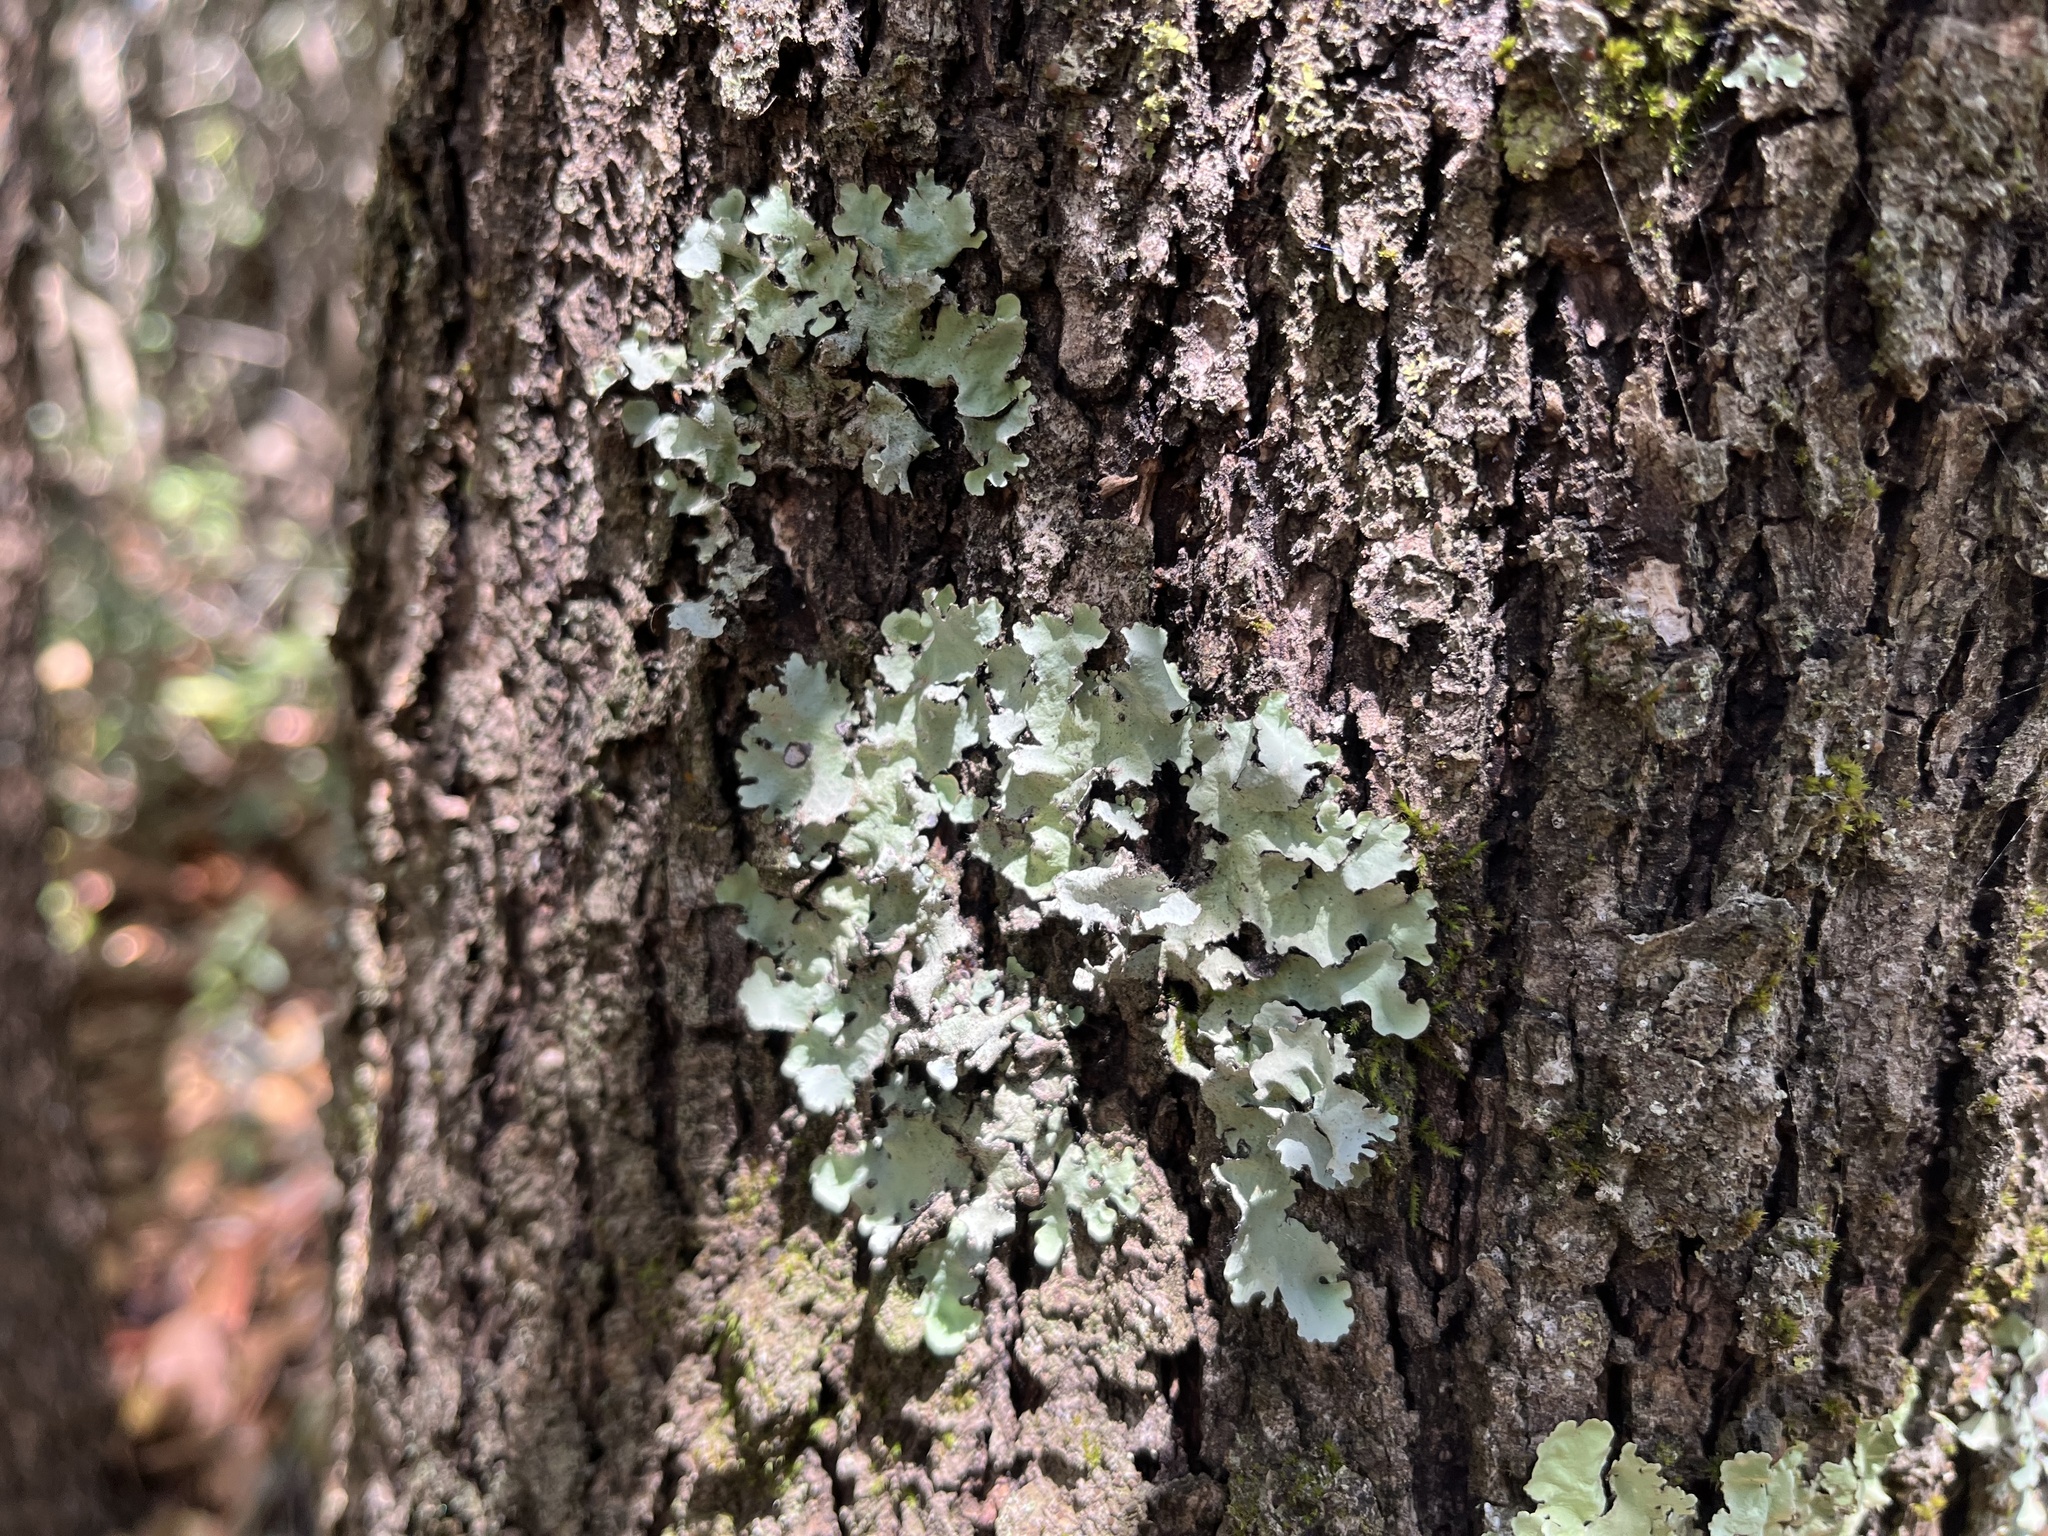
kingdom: Fungi
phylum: Ascomycota
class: Lecanoromycetes
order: Lecanorales
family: Parmeliaceae
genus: Flavoparmelia
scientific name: Flavoparmelia caperata
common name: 40-mile per hour lichen
